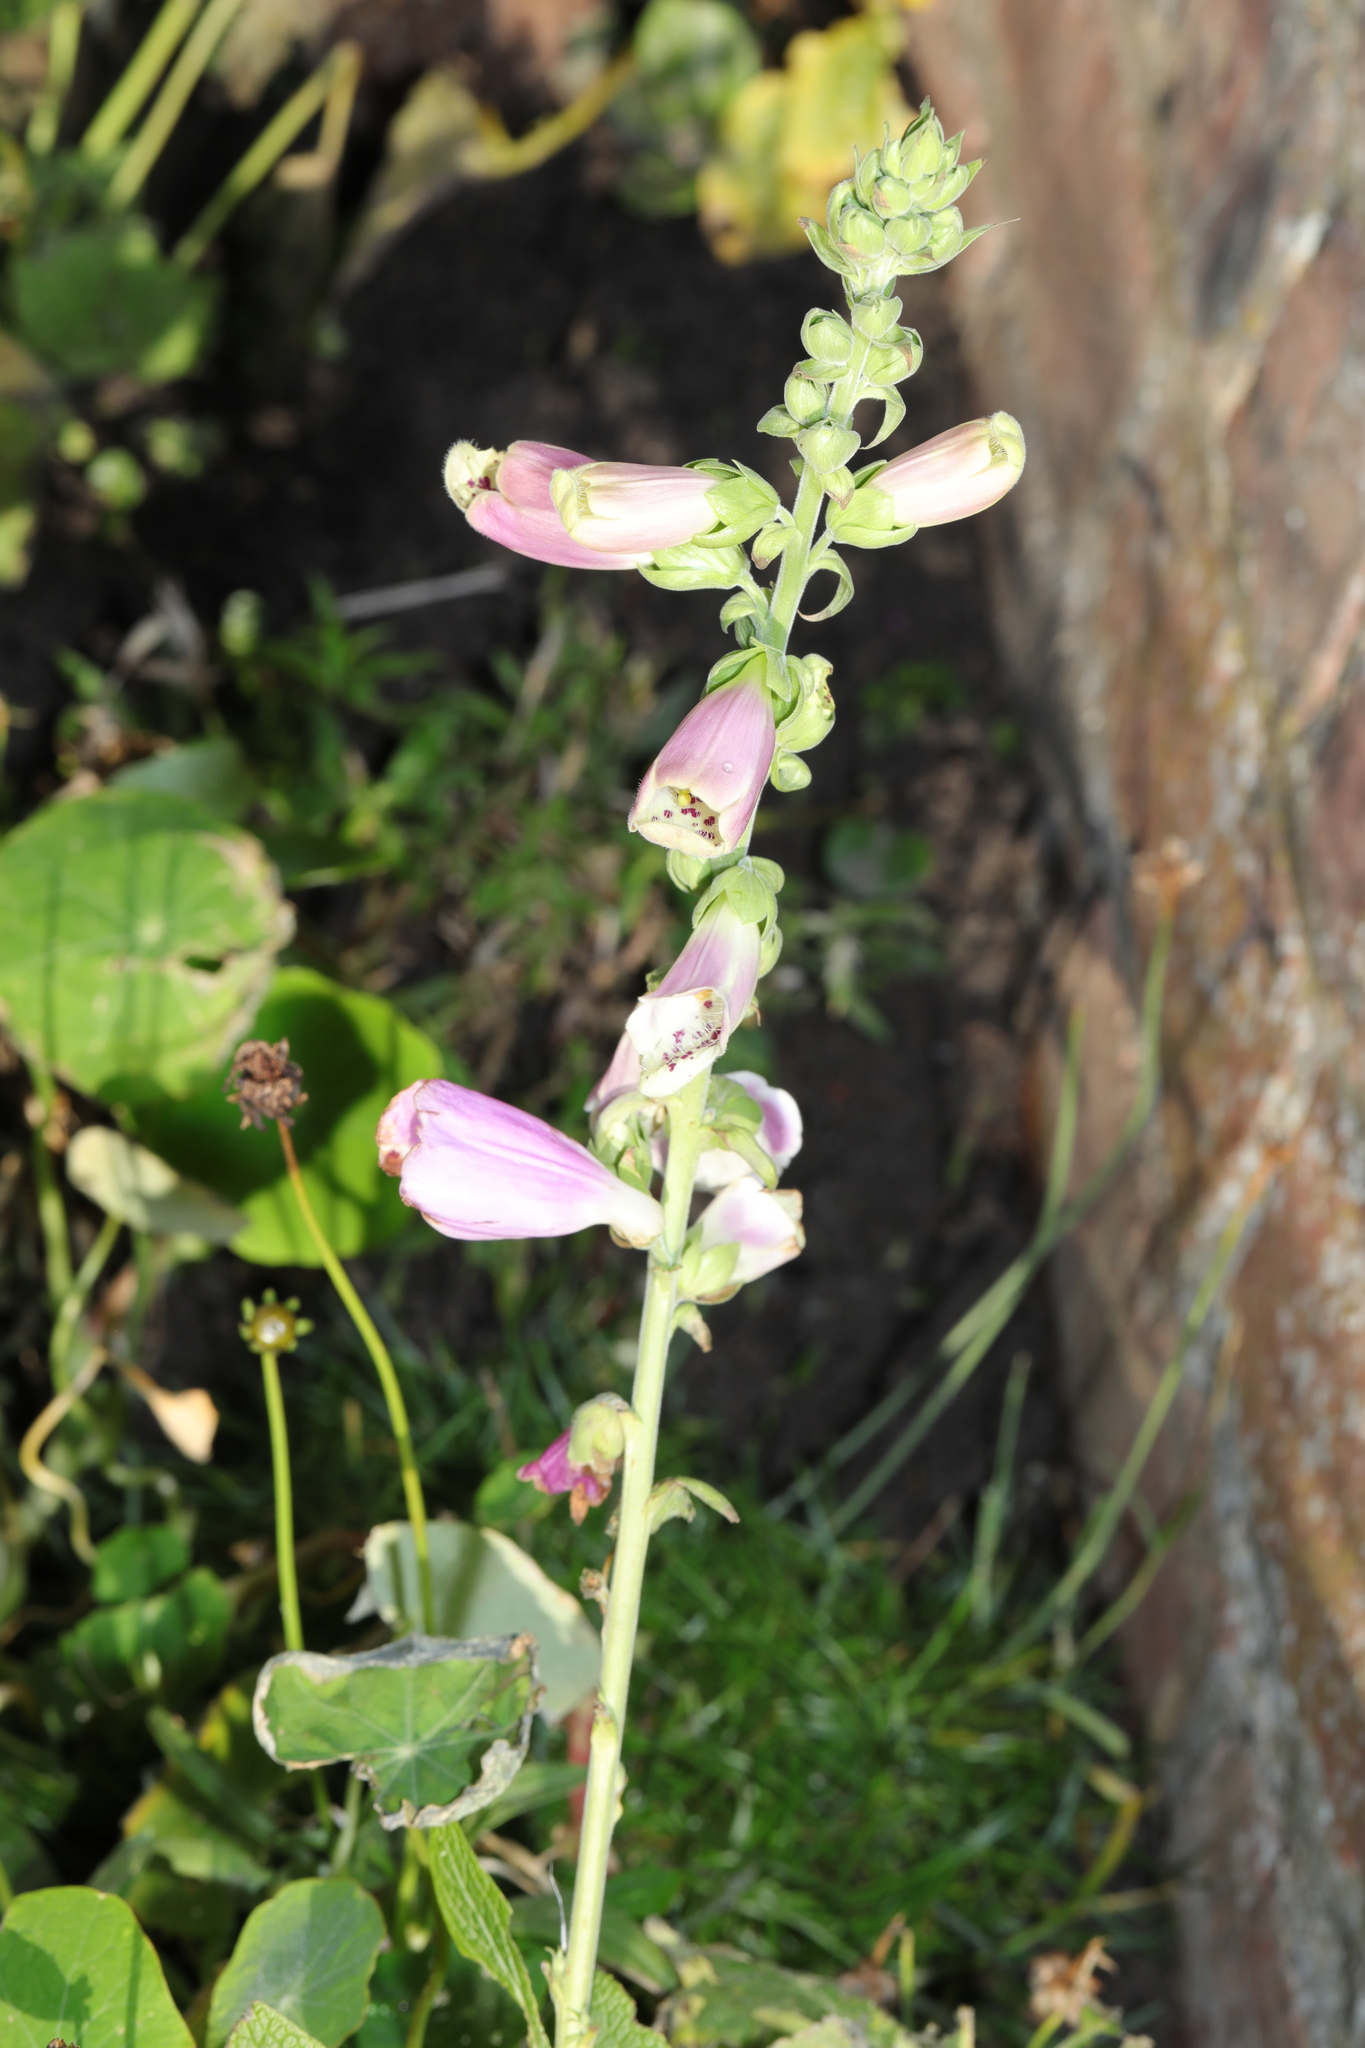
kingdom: Plantae
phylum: Tracheophyta
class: Magnoliopsida
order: Lamiales
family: Plantaginaceae
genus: Digitalis
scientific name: Digitalis purpurea
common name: Foxglove
